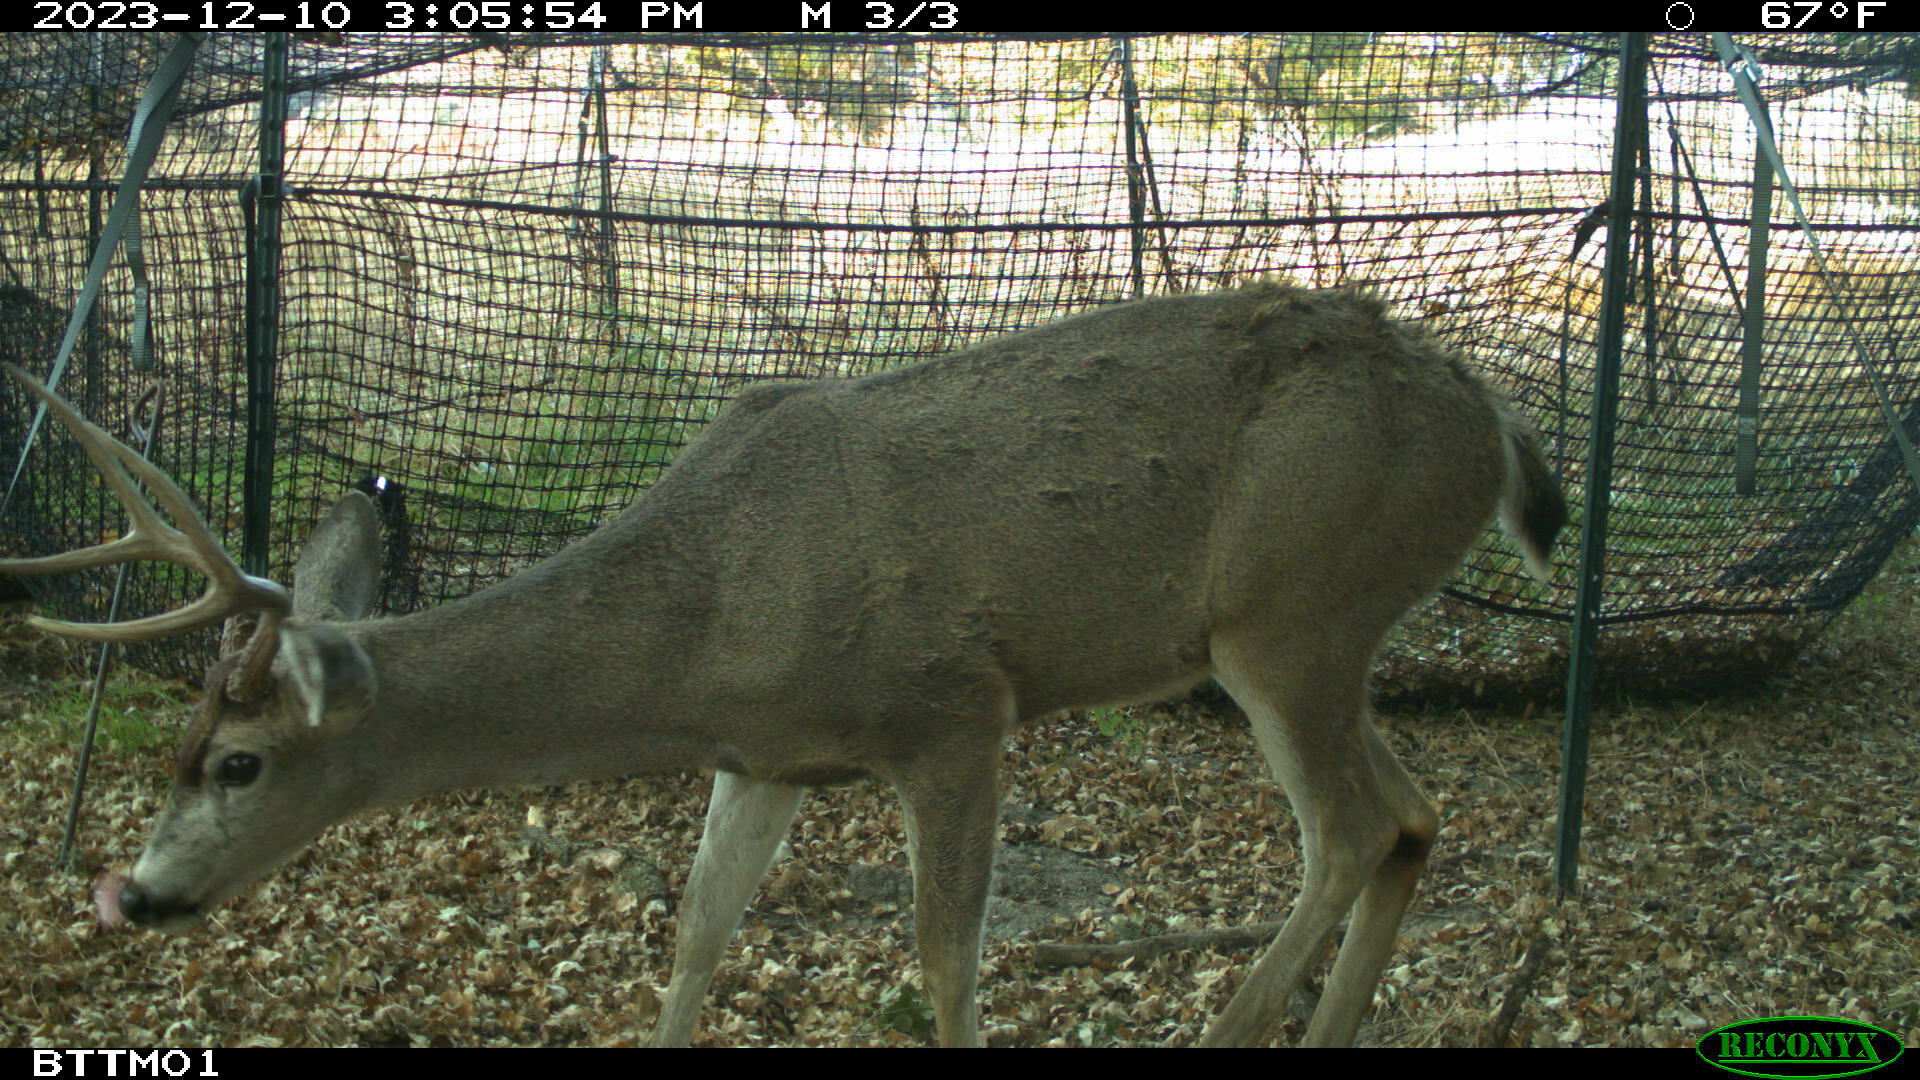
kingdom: Animalia
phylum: Chordata
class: Mammalia
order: Artiodactyla
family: Cervidae
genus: Odocoileus
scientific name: Odocoileus hemionus
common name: Mule deer
